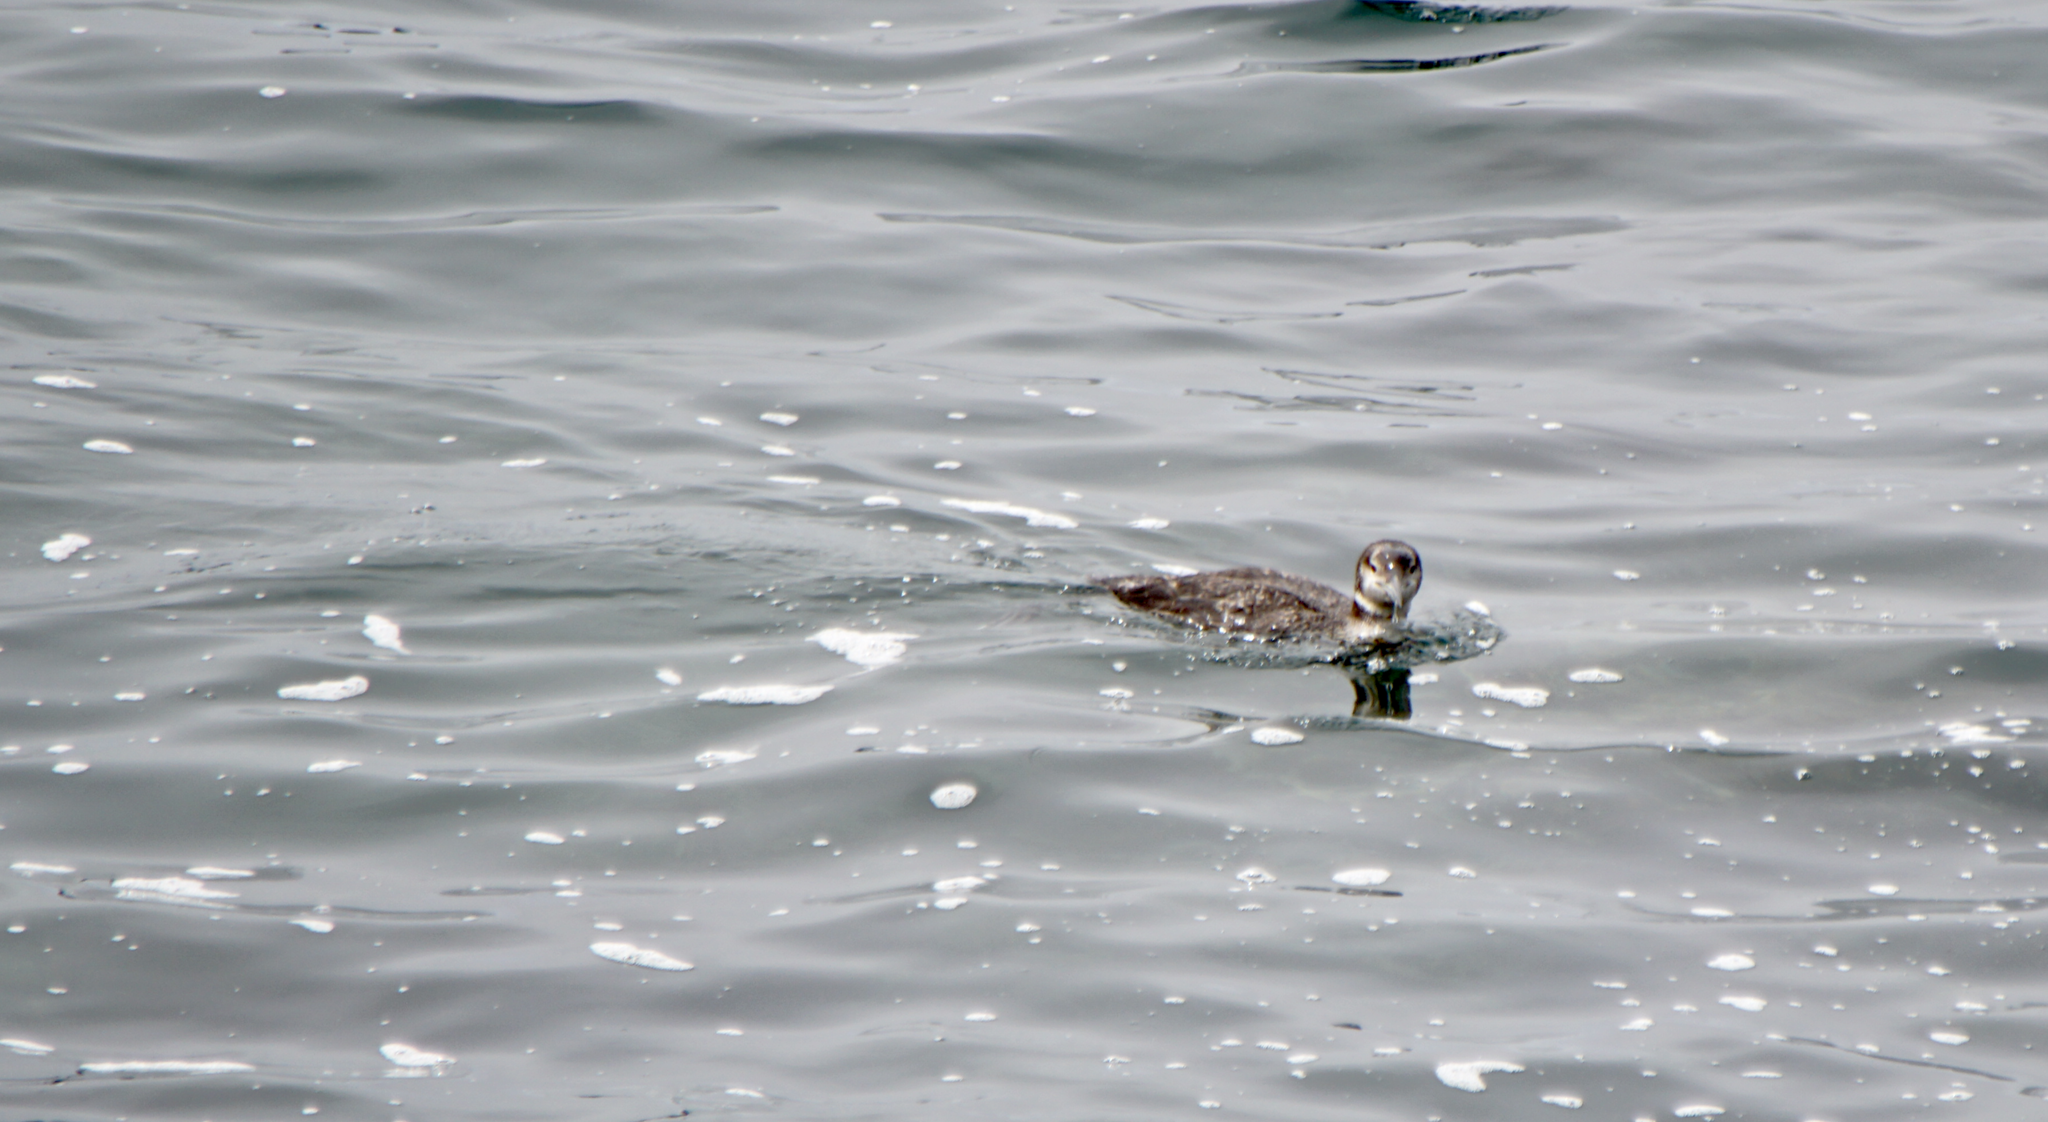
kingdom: Animalia
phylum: Chordata
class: Aves
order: Gaviiformes
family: Gaviidae
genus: Gavia
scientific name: Gavia immer
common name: Common loon
